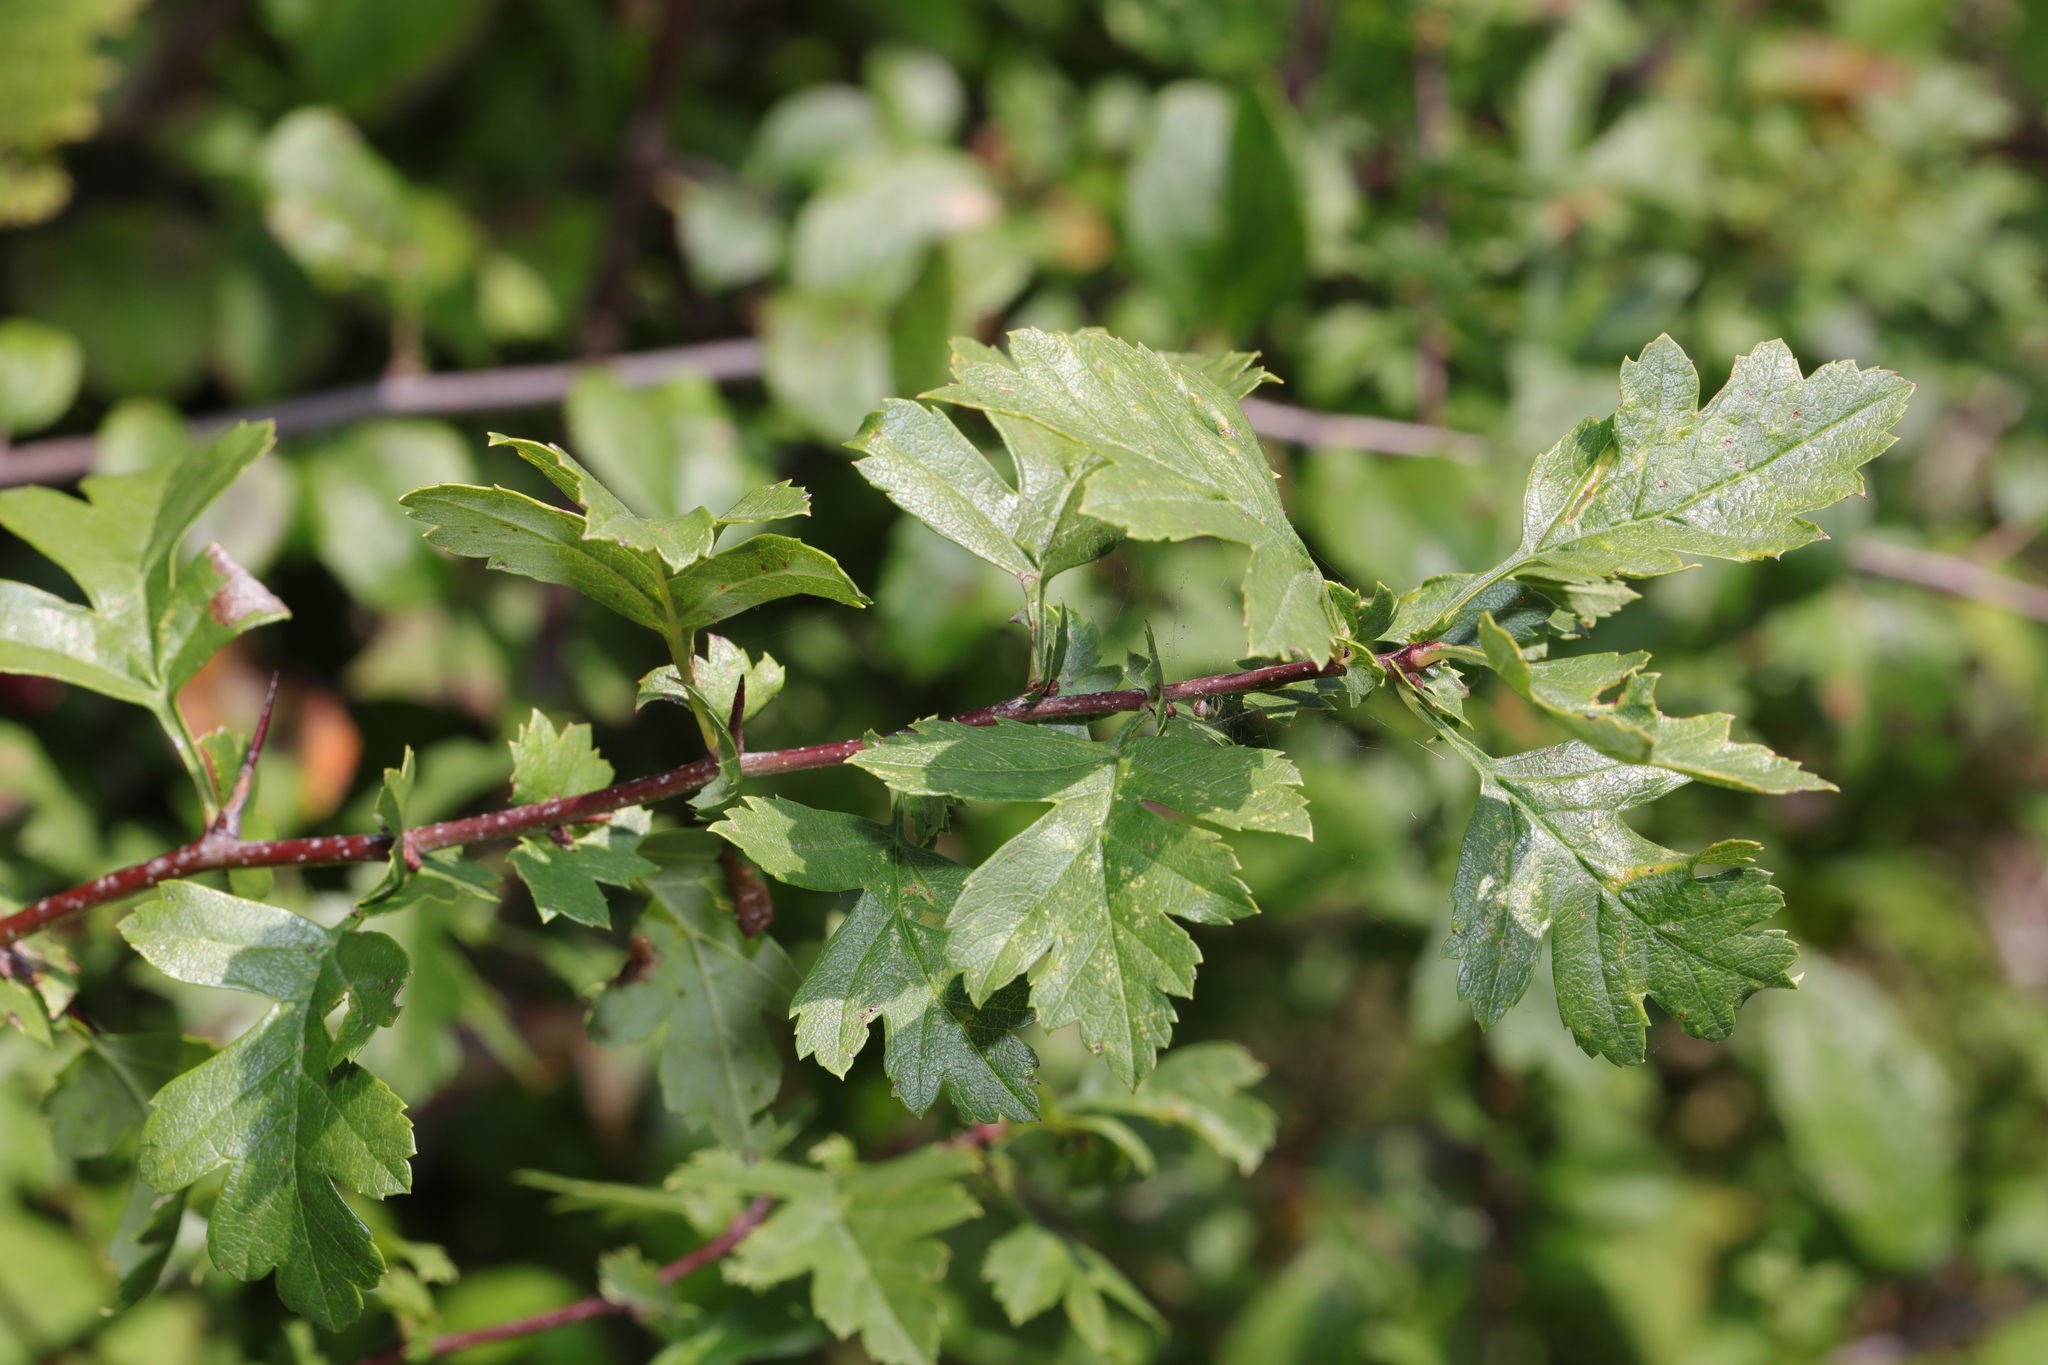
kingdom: Plantae
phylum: Tracheophyta
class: Magnoliopsida
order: Rosales
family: Rosaceae
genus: Crataegus
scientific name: Crataegus monogyna
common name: Hawthorn
